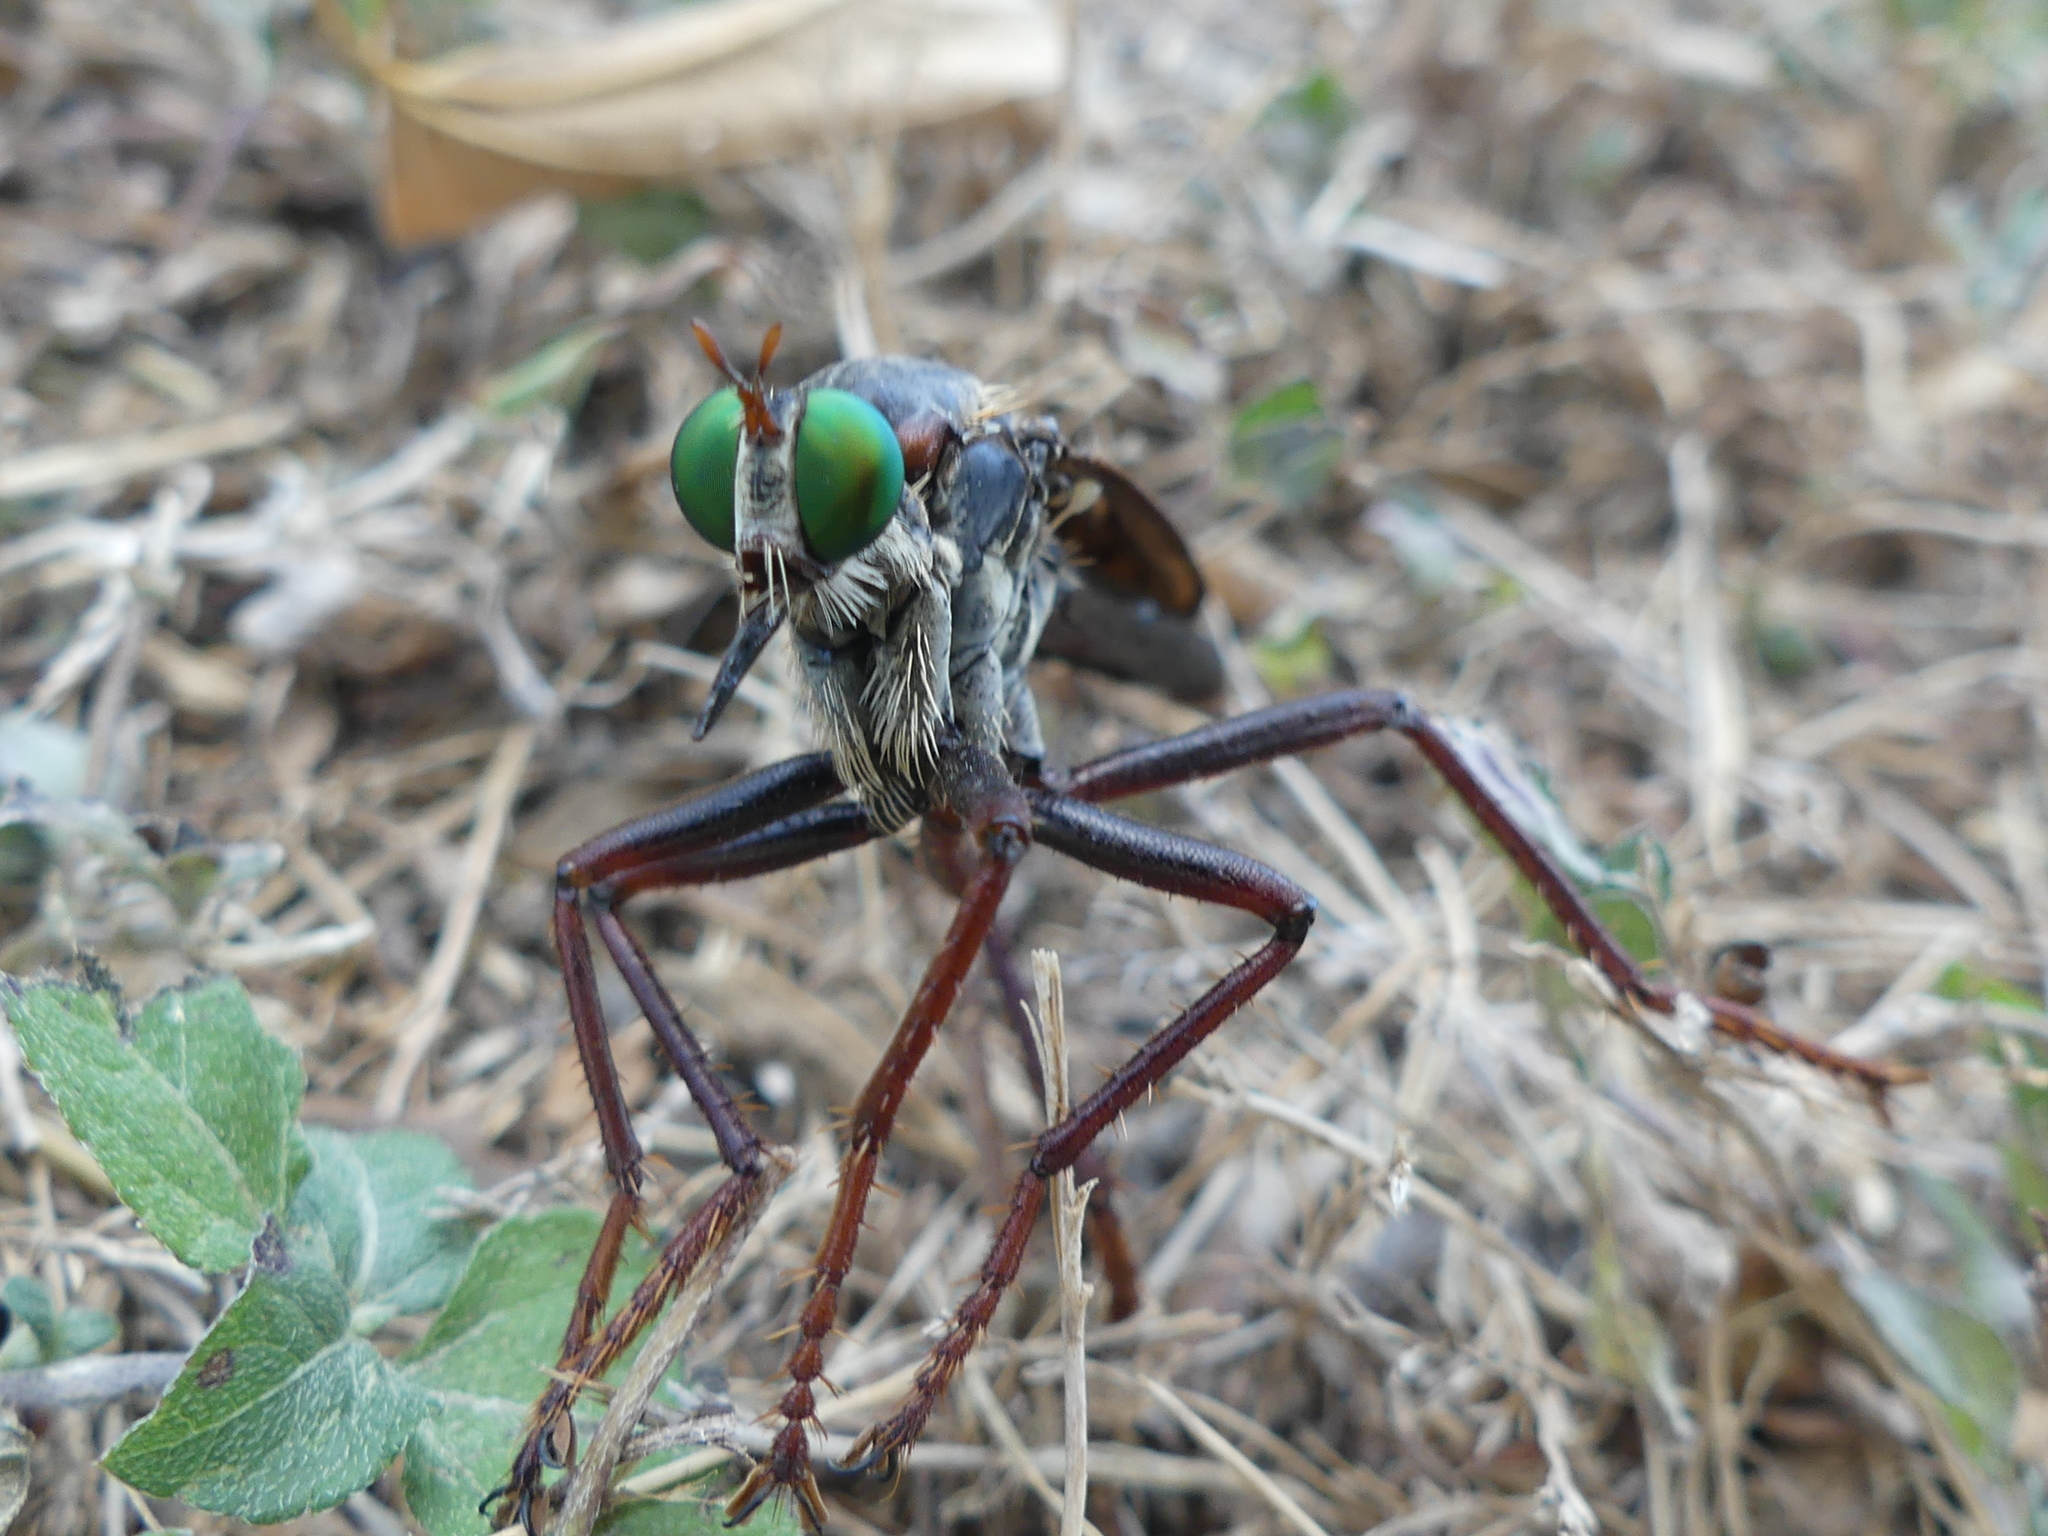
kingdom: Animalia
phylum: Arthropoda
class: Insecta
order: Diptera
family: Asilidae
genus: Microstylum
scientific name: Microstylum morosum
